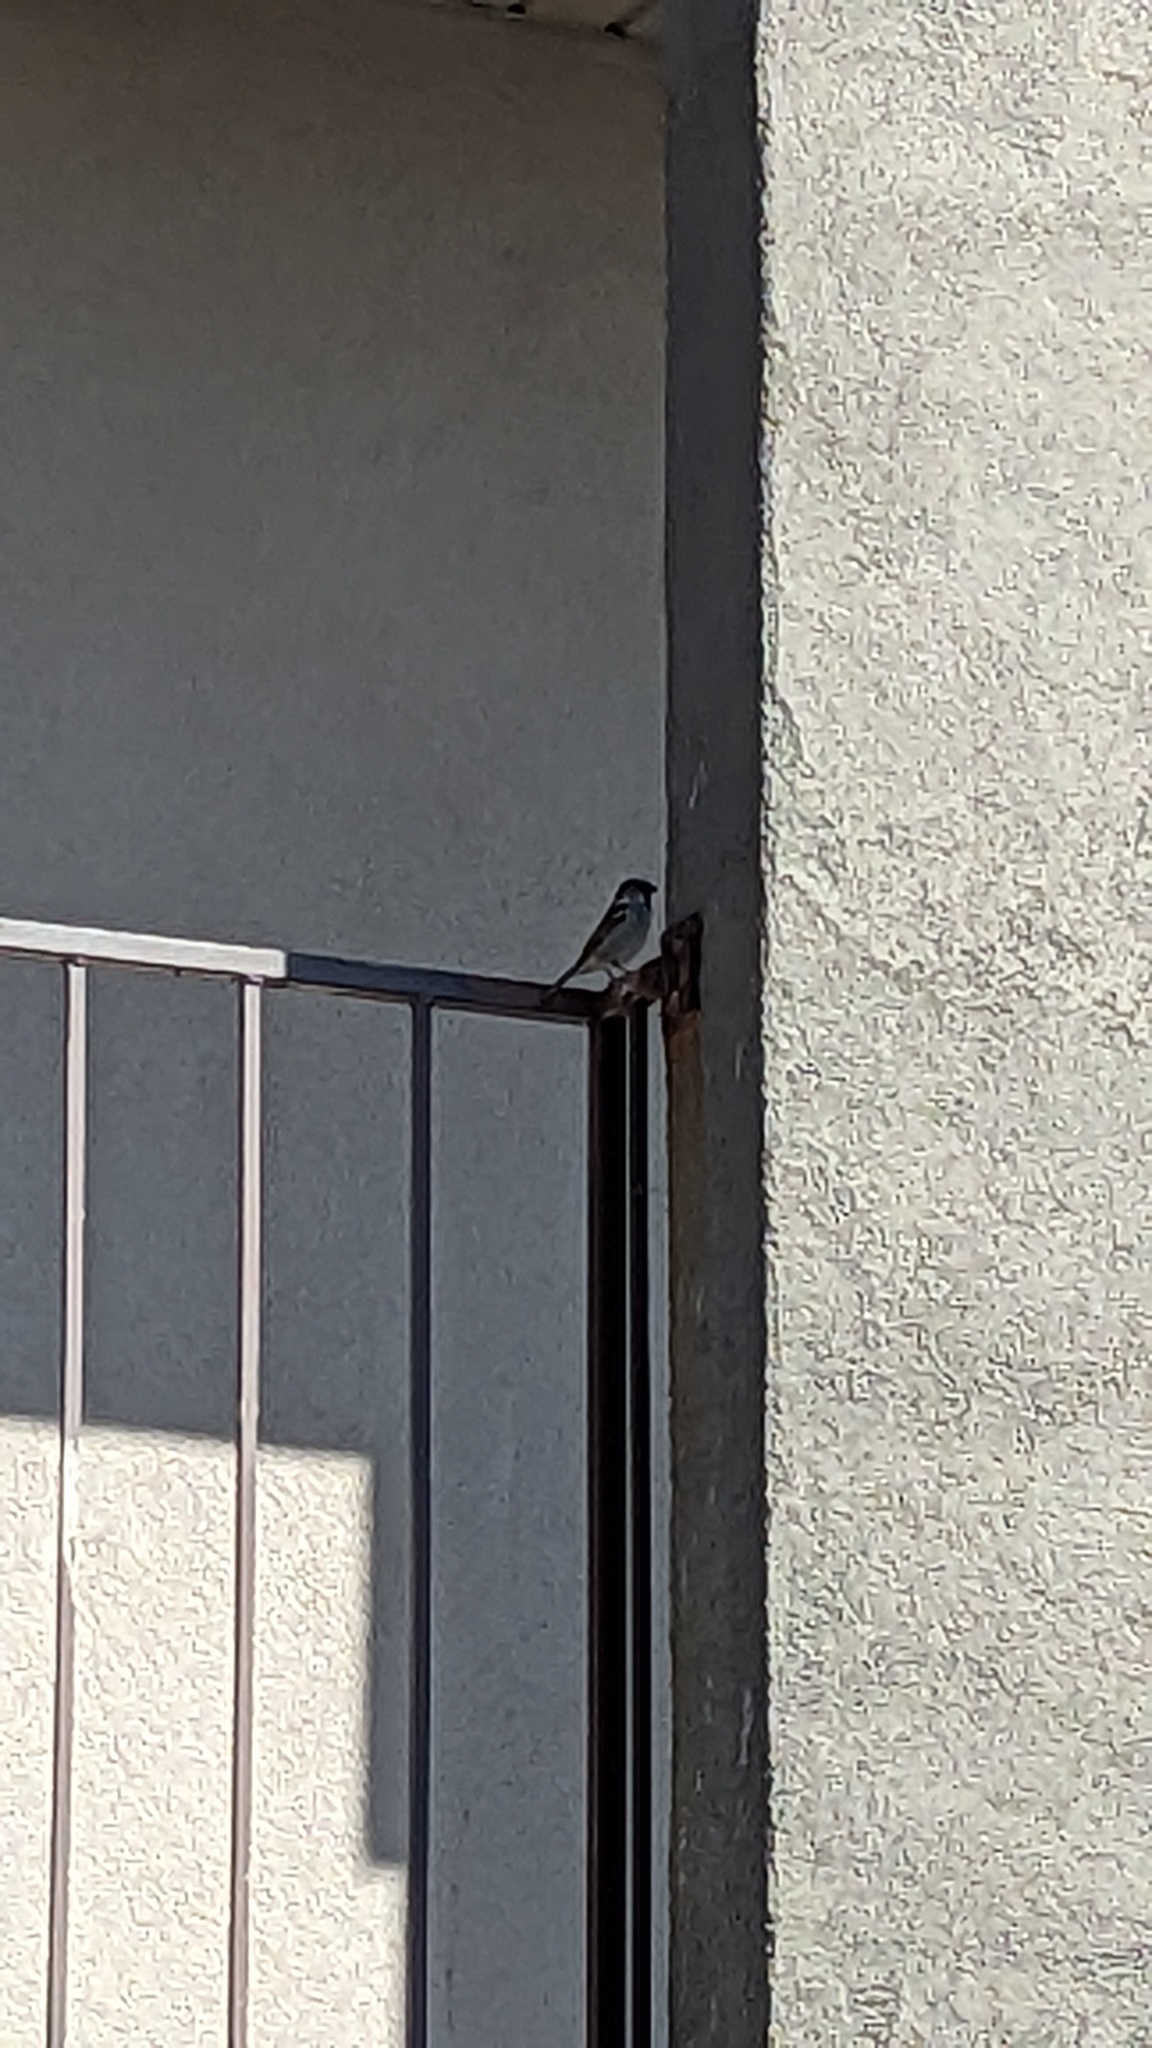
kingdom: Animalia
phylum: Chordata
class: Aves
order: Passeriformes
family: Passeridae
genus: Passer
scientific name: Passer domesticus
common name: House sparrow
